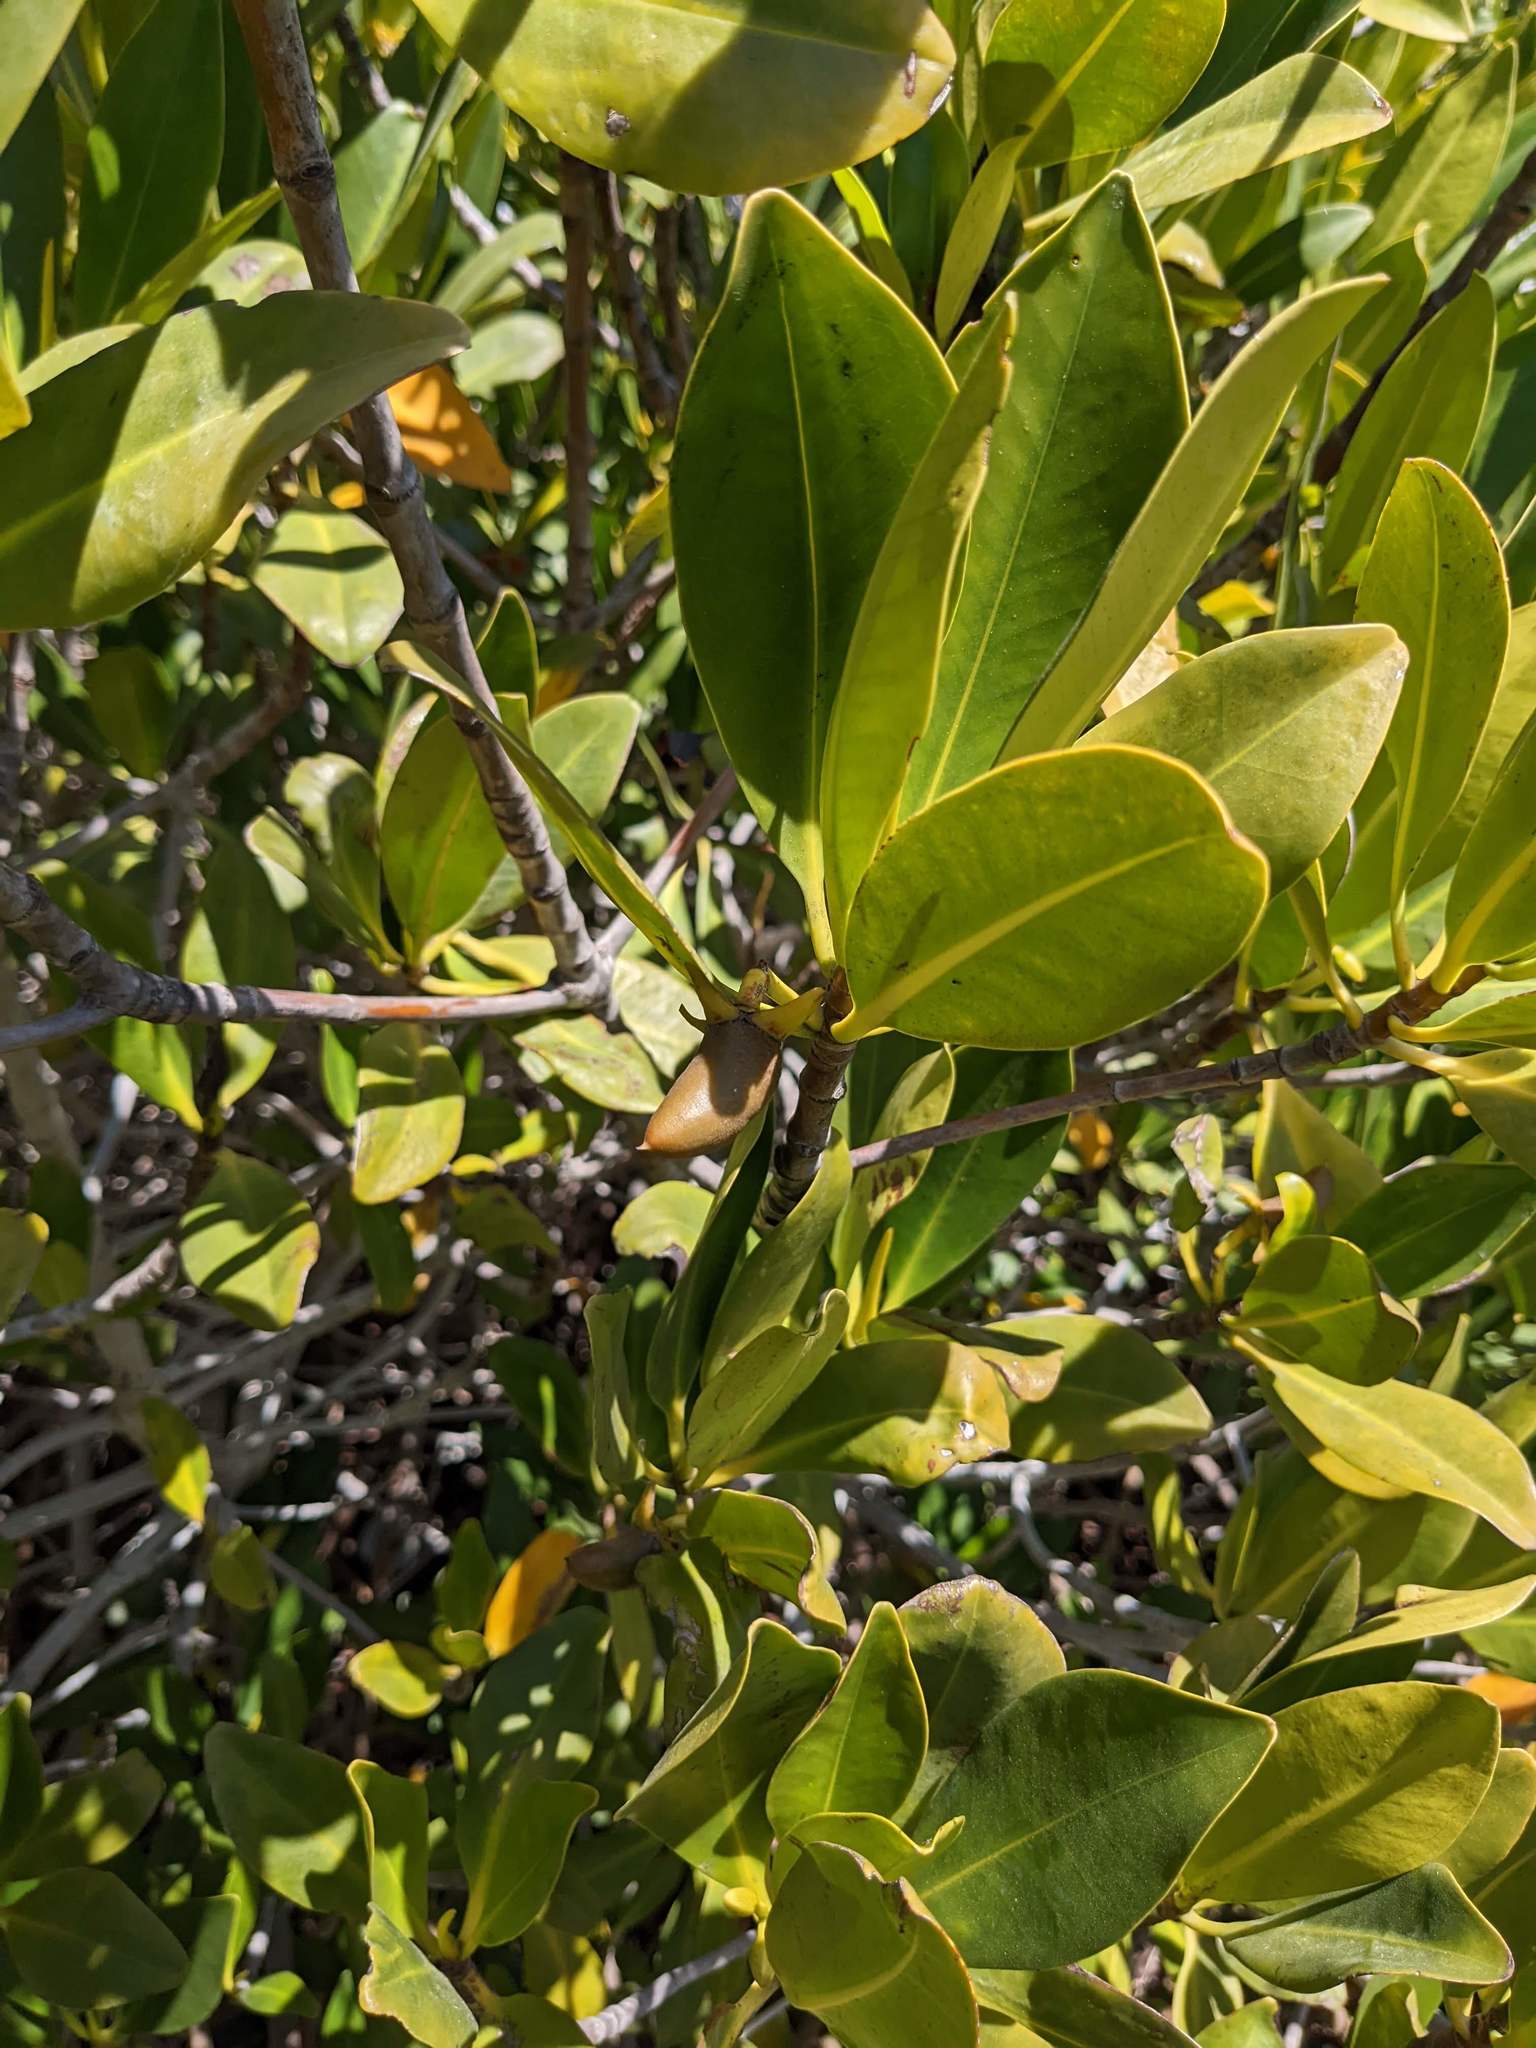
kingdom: Plantae
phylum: Tracheophyta
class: Magnoliopsida
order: Malpighiales
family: Rhizophoraceae
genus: Rhizophora
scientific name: Rhizophora mangle
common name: Red mangrove
